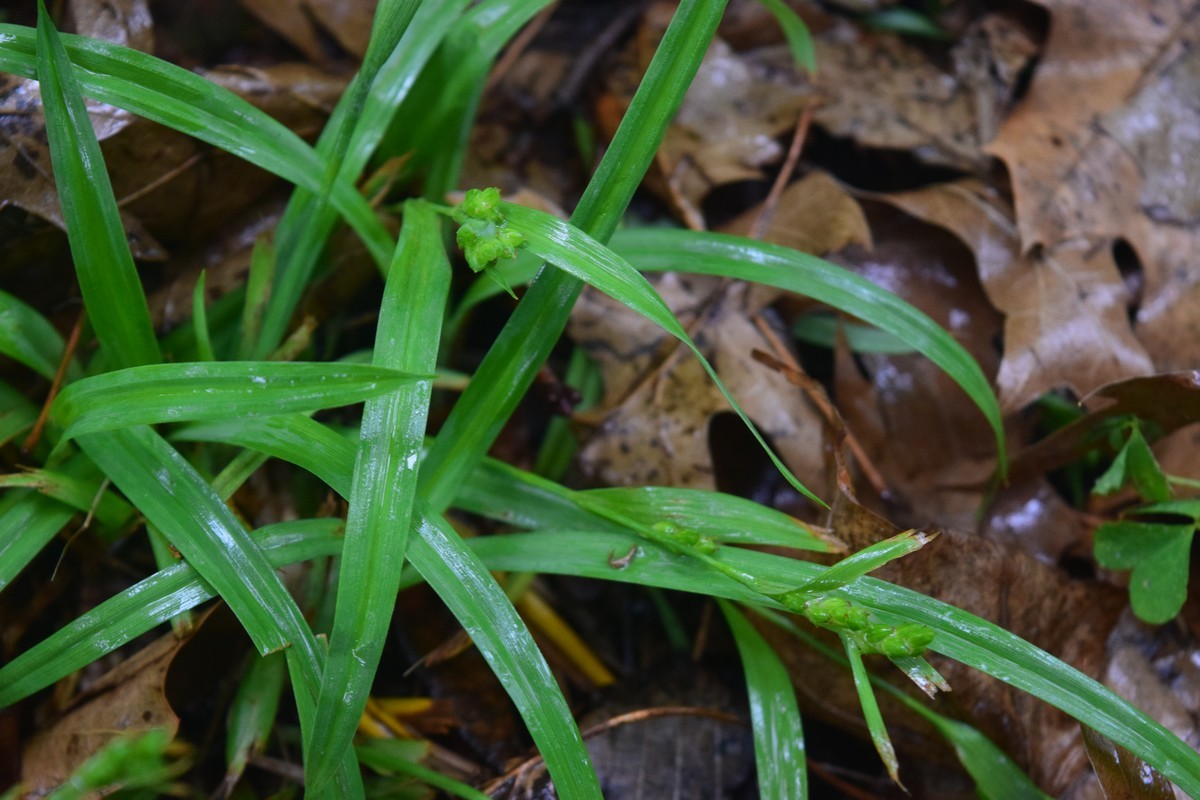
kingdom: Plantae
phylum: Tracheophyta
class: Liliopsida
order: Poales
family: Cyperaceae
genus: Carex
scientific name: Carex glaucodea
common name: Blue sedge
